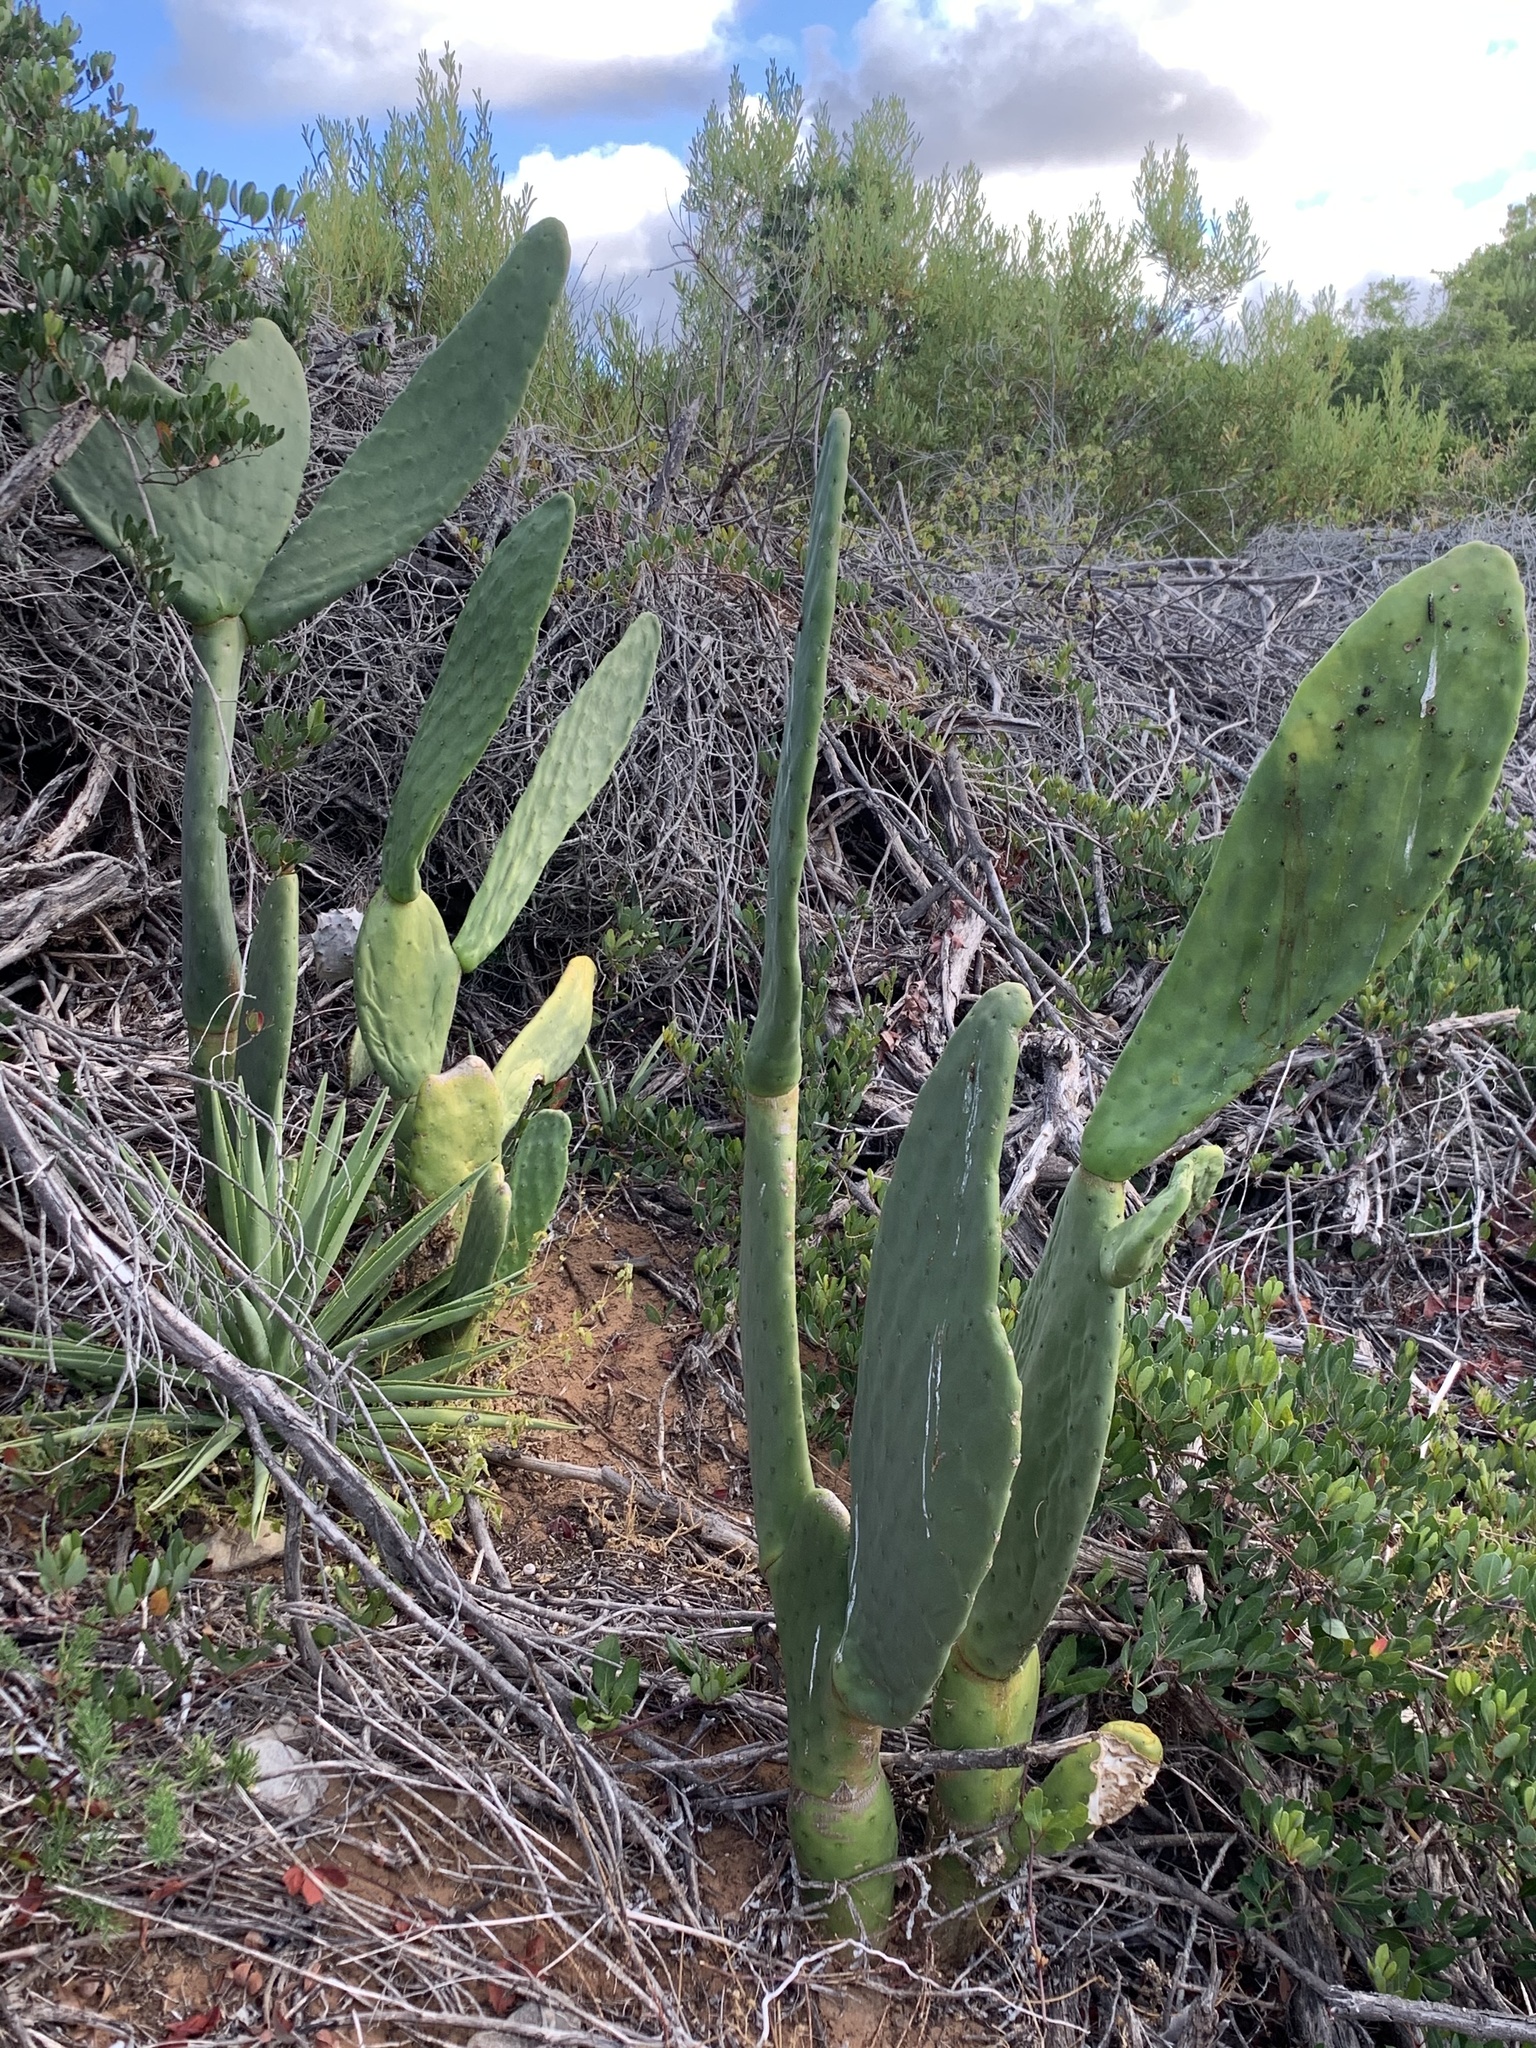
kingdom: Plantae
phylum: Tracheophyta
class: Magnoliopsida
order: Caryophyllales
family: Cactaceae
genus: Opuntia
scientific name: Opuntia ficus-indica
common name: Barbary fig
